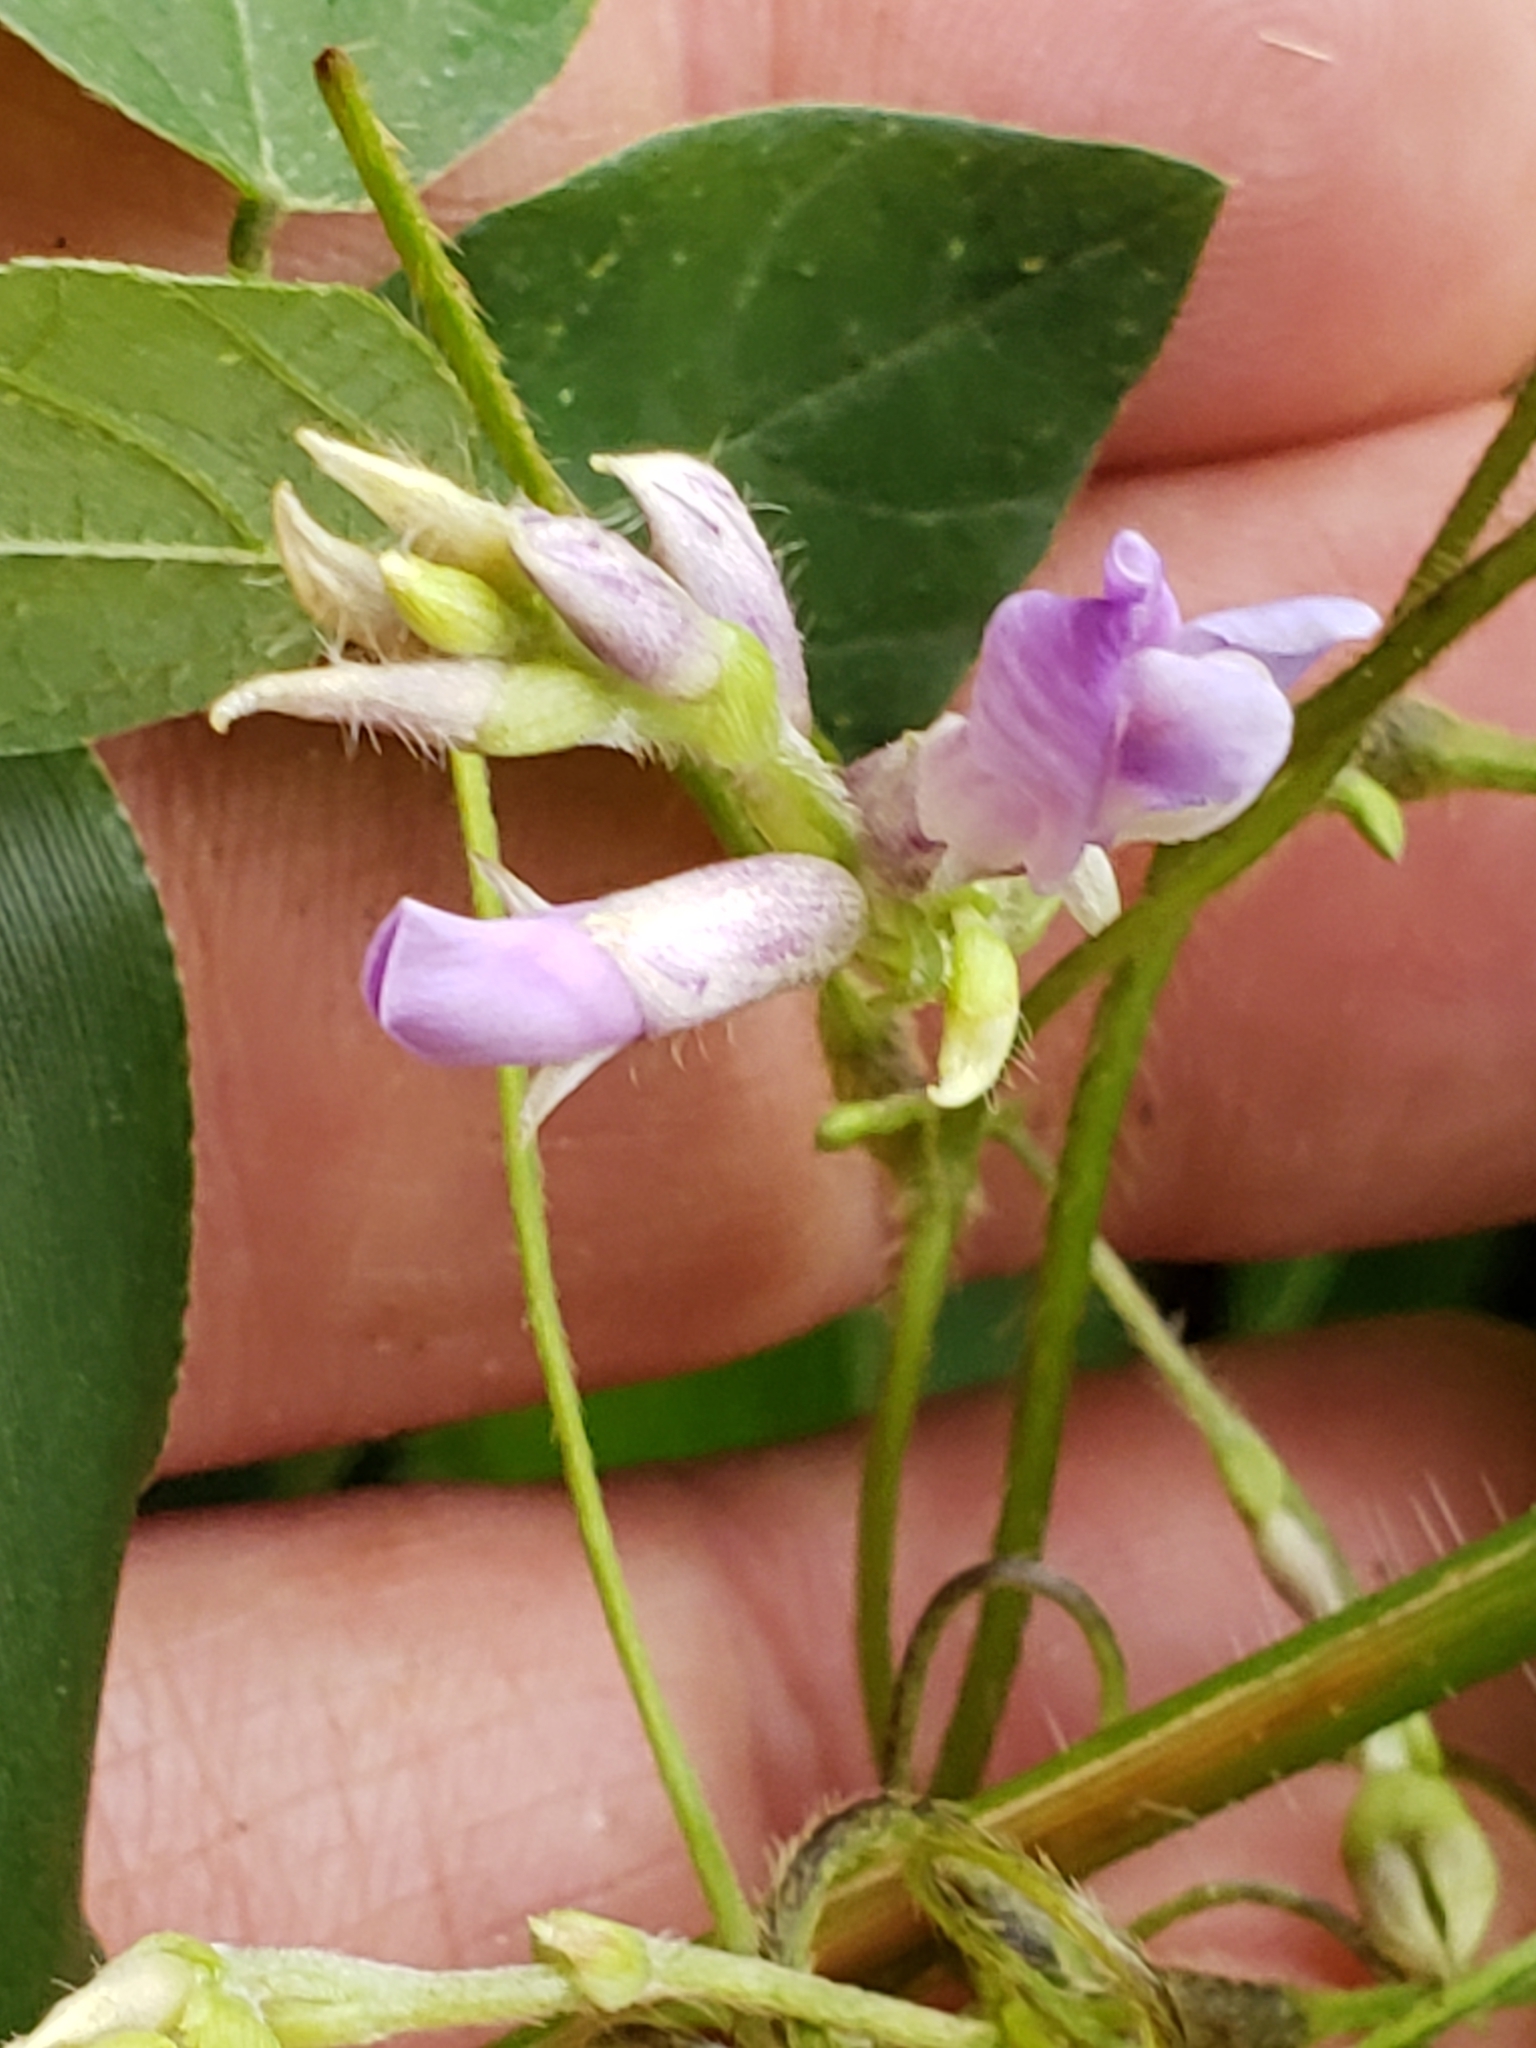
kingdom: Plantae
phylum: Tracheophyta
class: Magnoliopsida
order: Fabales
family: Fabaceae
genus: Amphicarpaea
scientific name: Amphicarpaea bracteata
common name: American hog peanut
